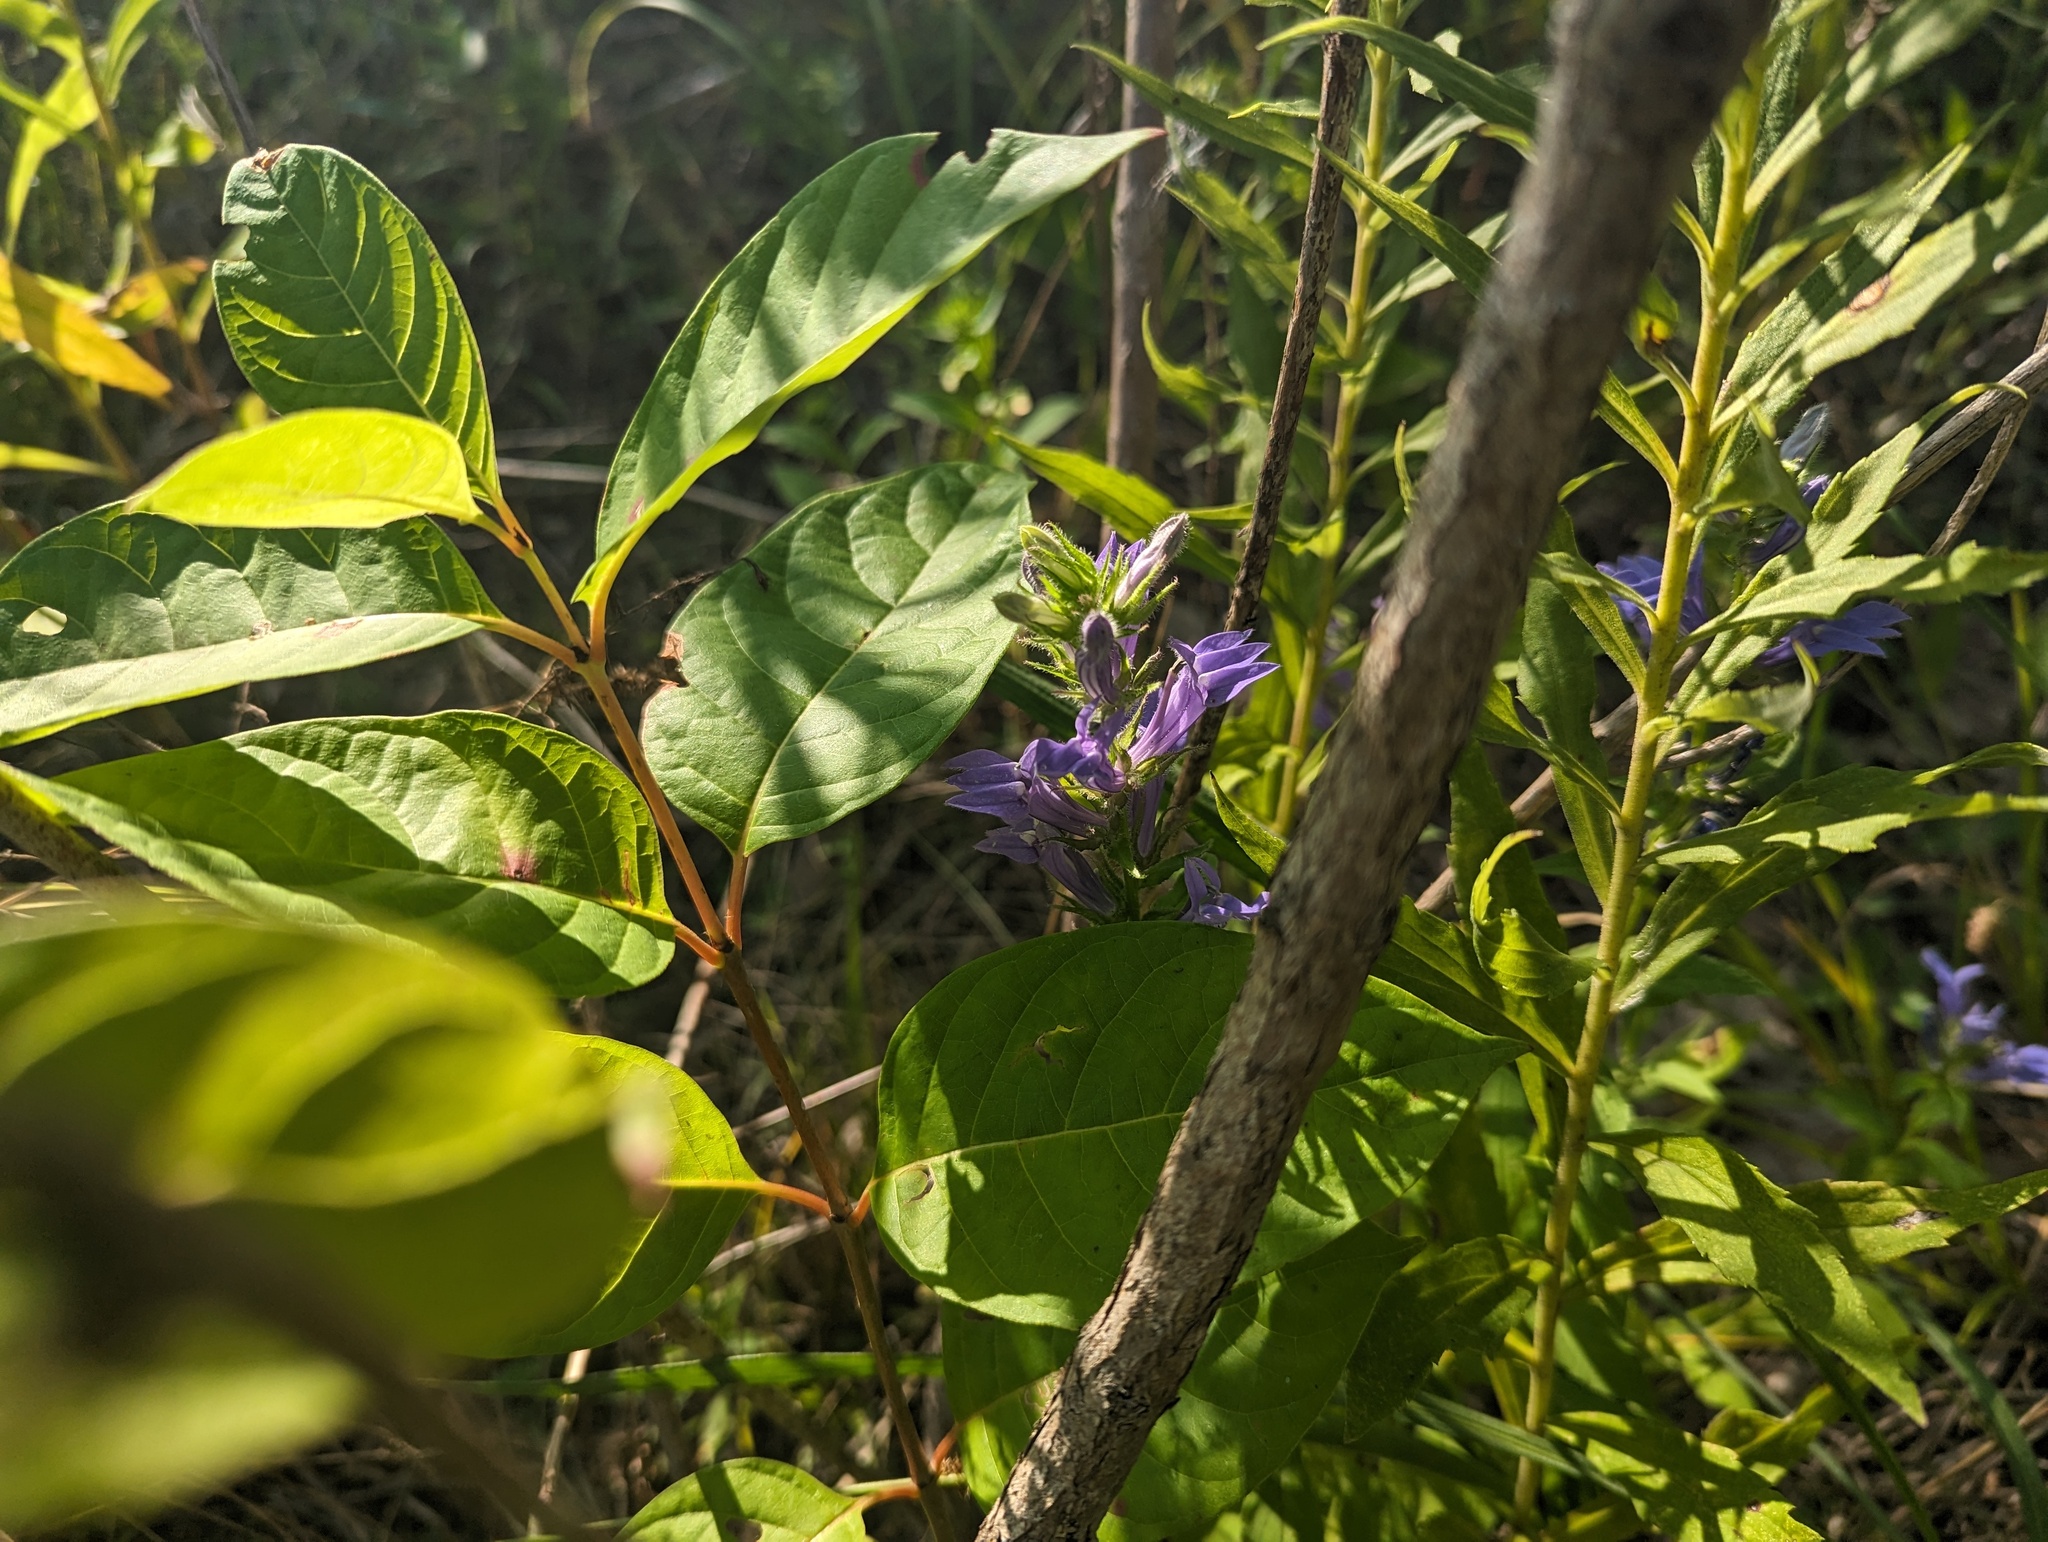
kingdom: Plantae
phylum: Tracheophyta
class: Magnoliopsida
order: Asterales
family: Campanulaceae
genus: Lobelia
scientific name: Lobelia siphilitica
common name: Great lobelia
